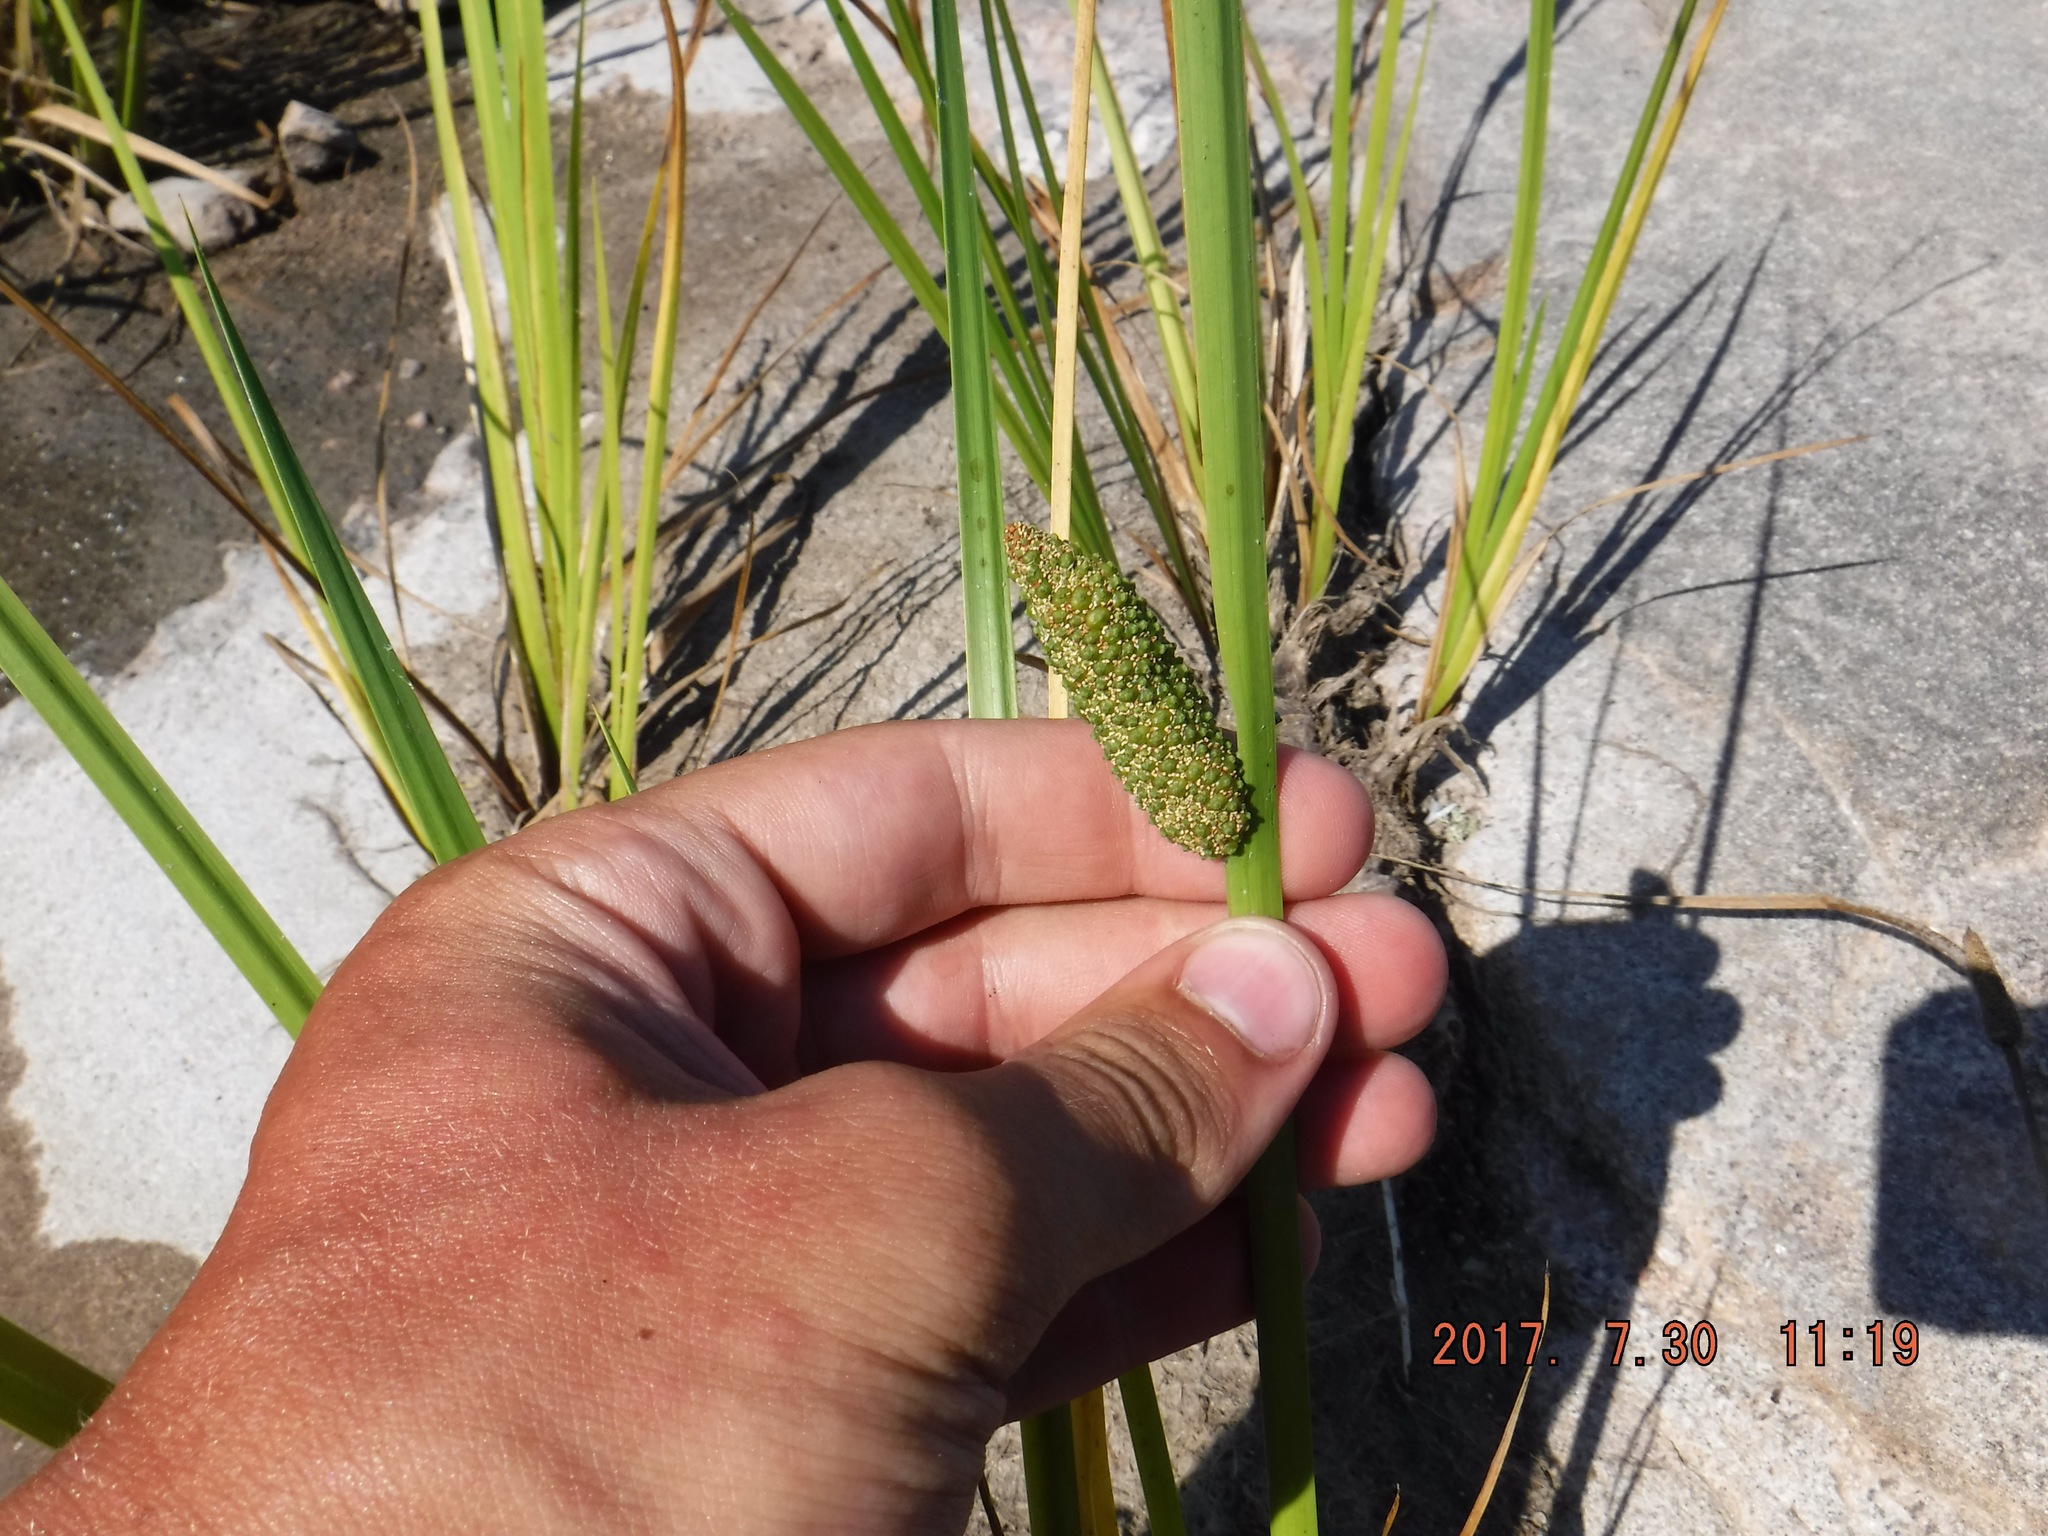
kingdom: Plantae
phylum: Tracheophyta
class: Liliopsida
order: Acorales
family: Acoraceae
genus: Acorus
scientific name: Acorus calamus
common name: Sweet-flag
